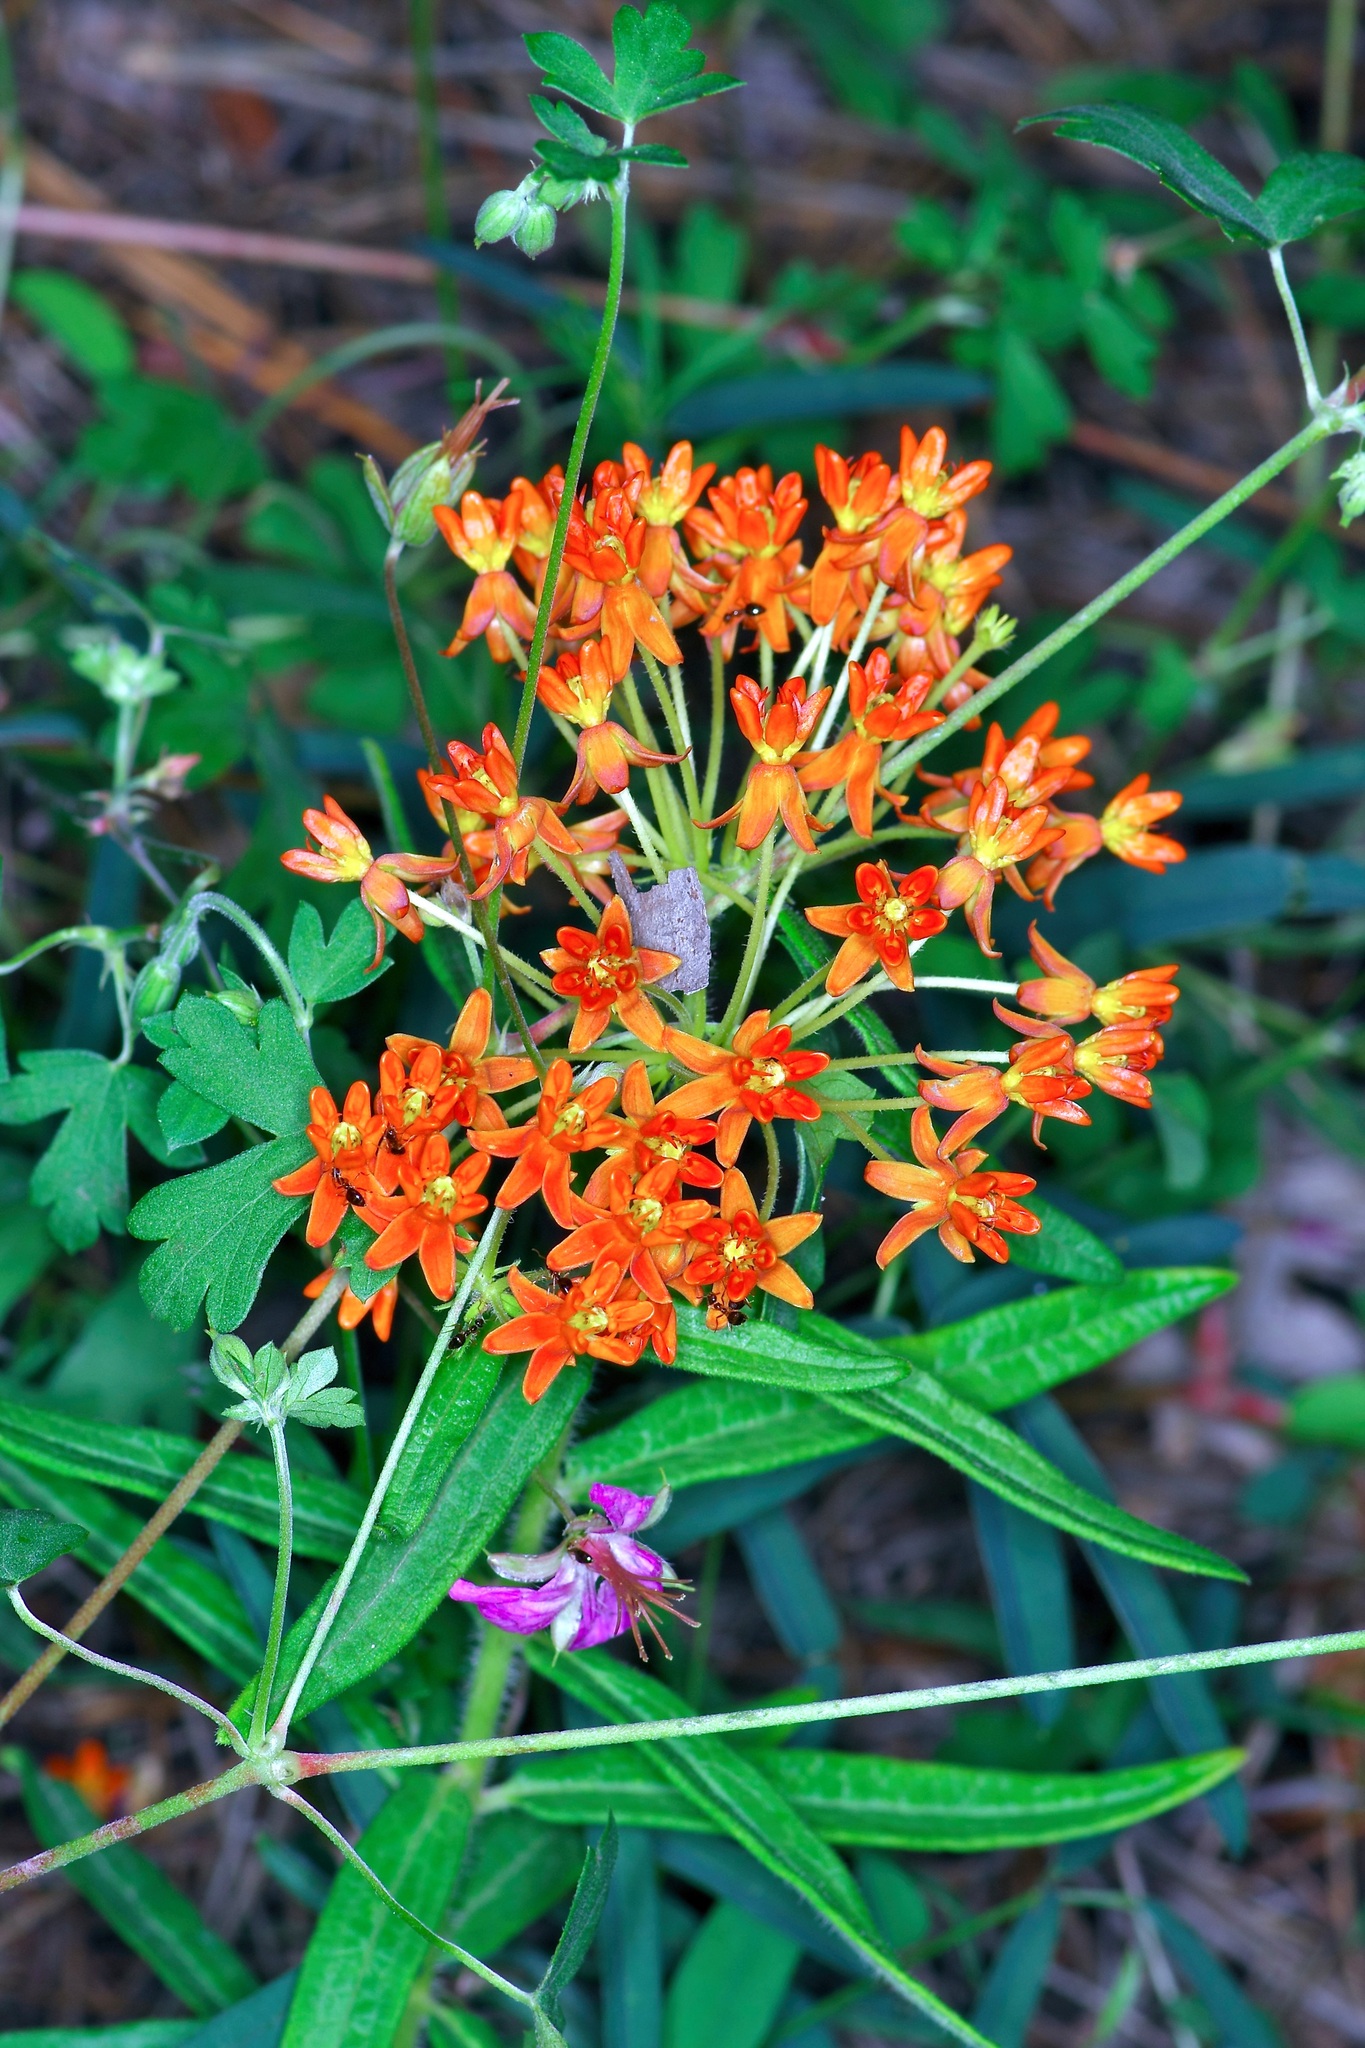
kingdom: Plantae
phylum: Tracheophyta
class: Magnoliopsida
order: Gentianales
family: Apocynaceae
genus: Asclepias
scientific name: Asclepias tuberosa
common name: Butterfly milkweed
